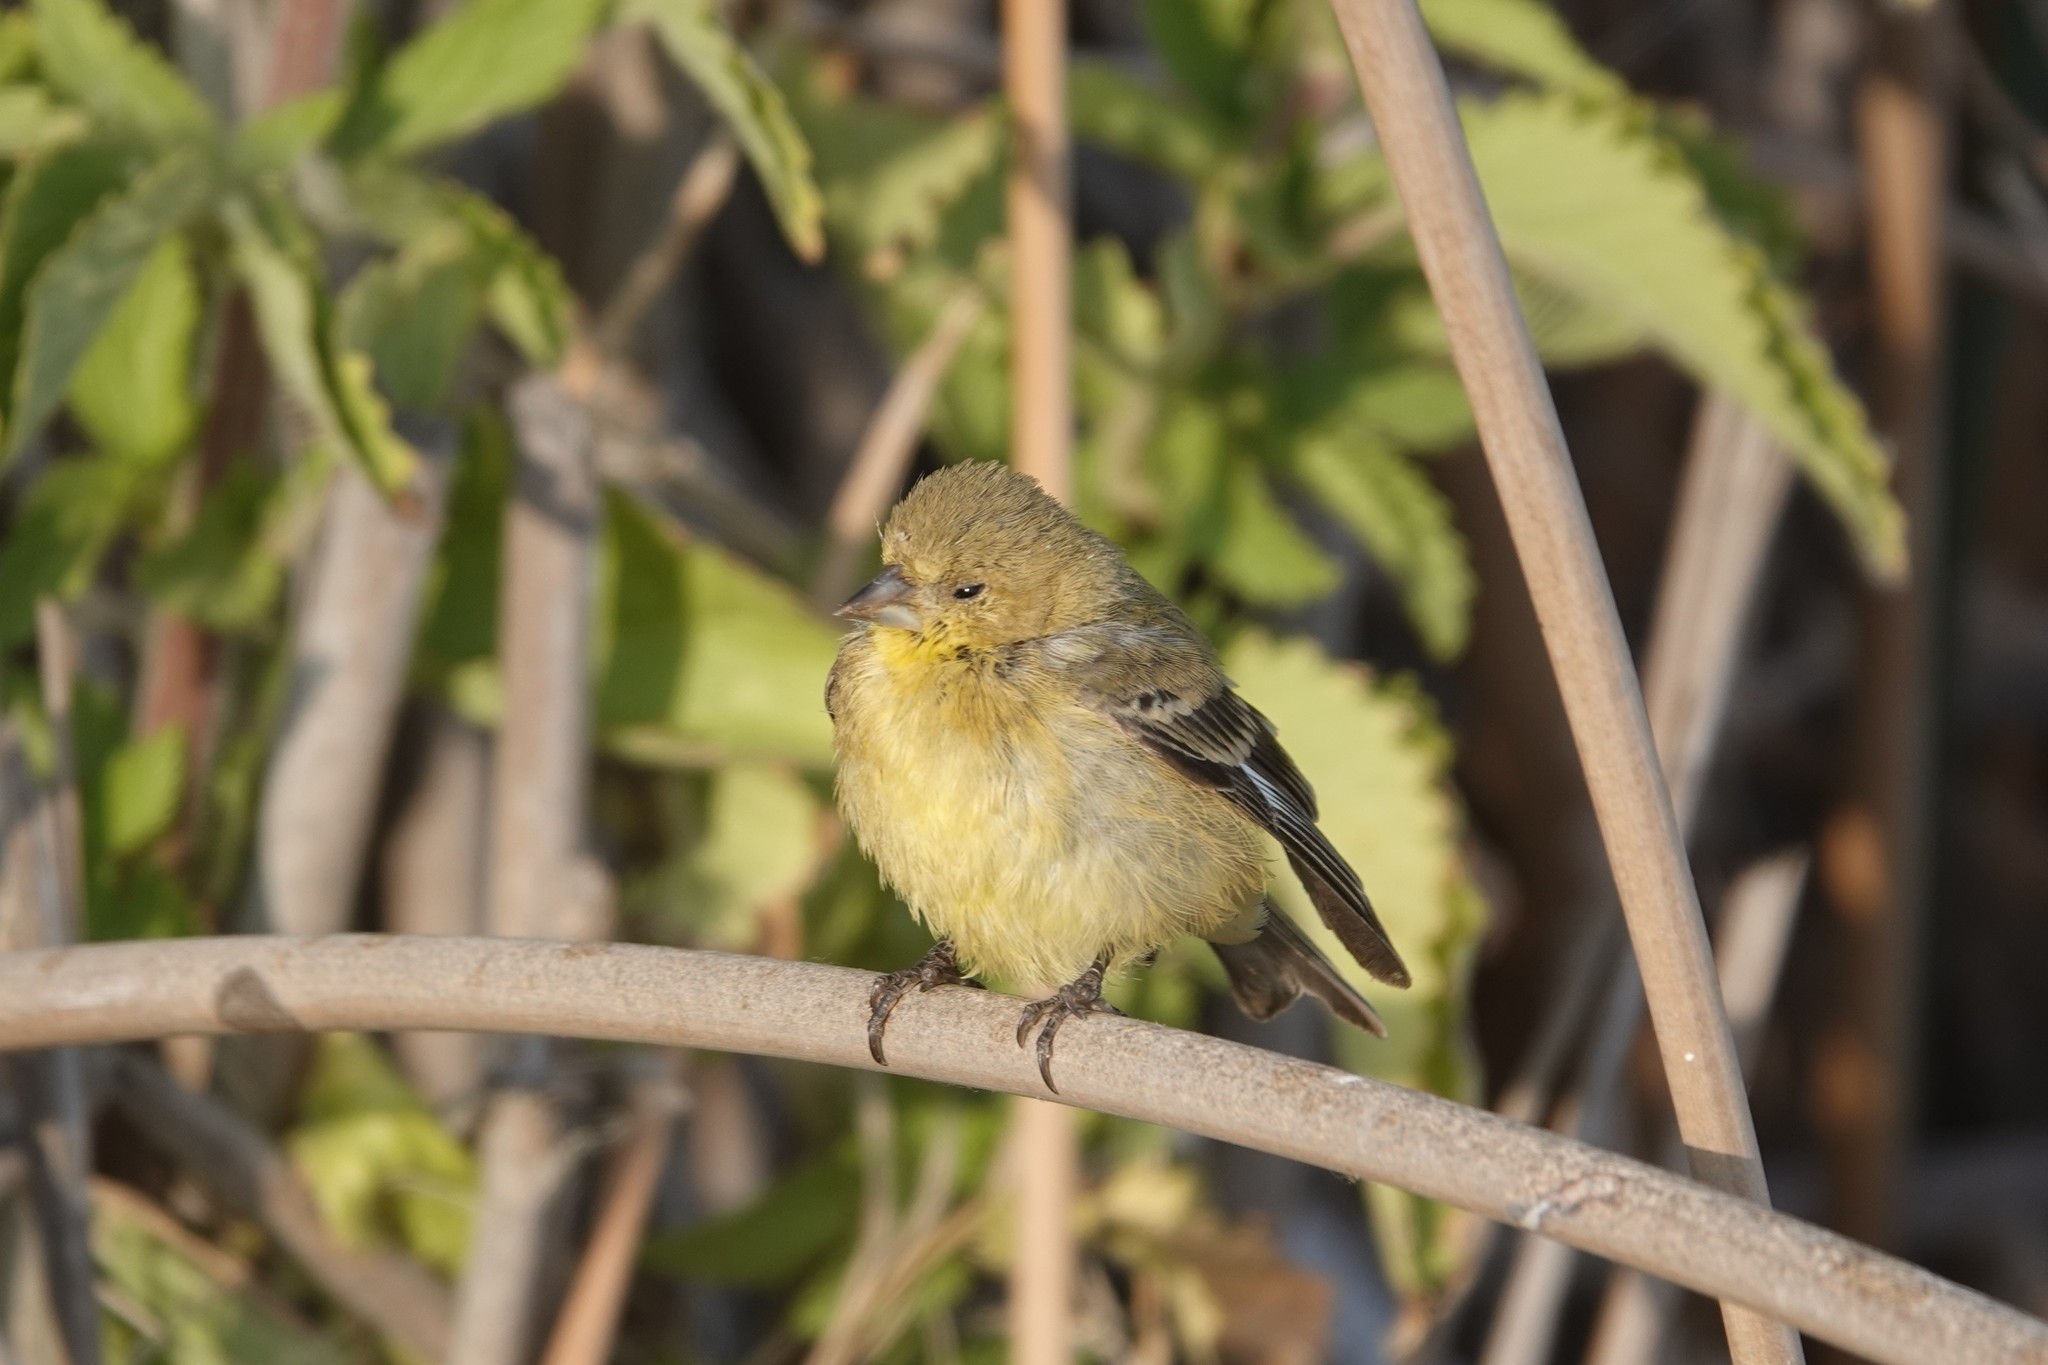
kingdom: Animalia
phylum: Chordata
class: Aves
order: Passeriformes
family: Fringillidae
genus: Spinus
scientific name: Spinus psaltria
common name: Lesser goldfinch
